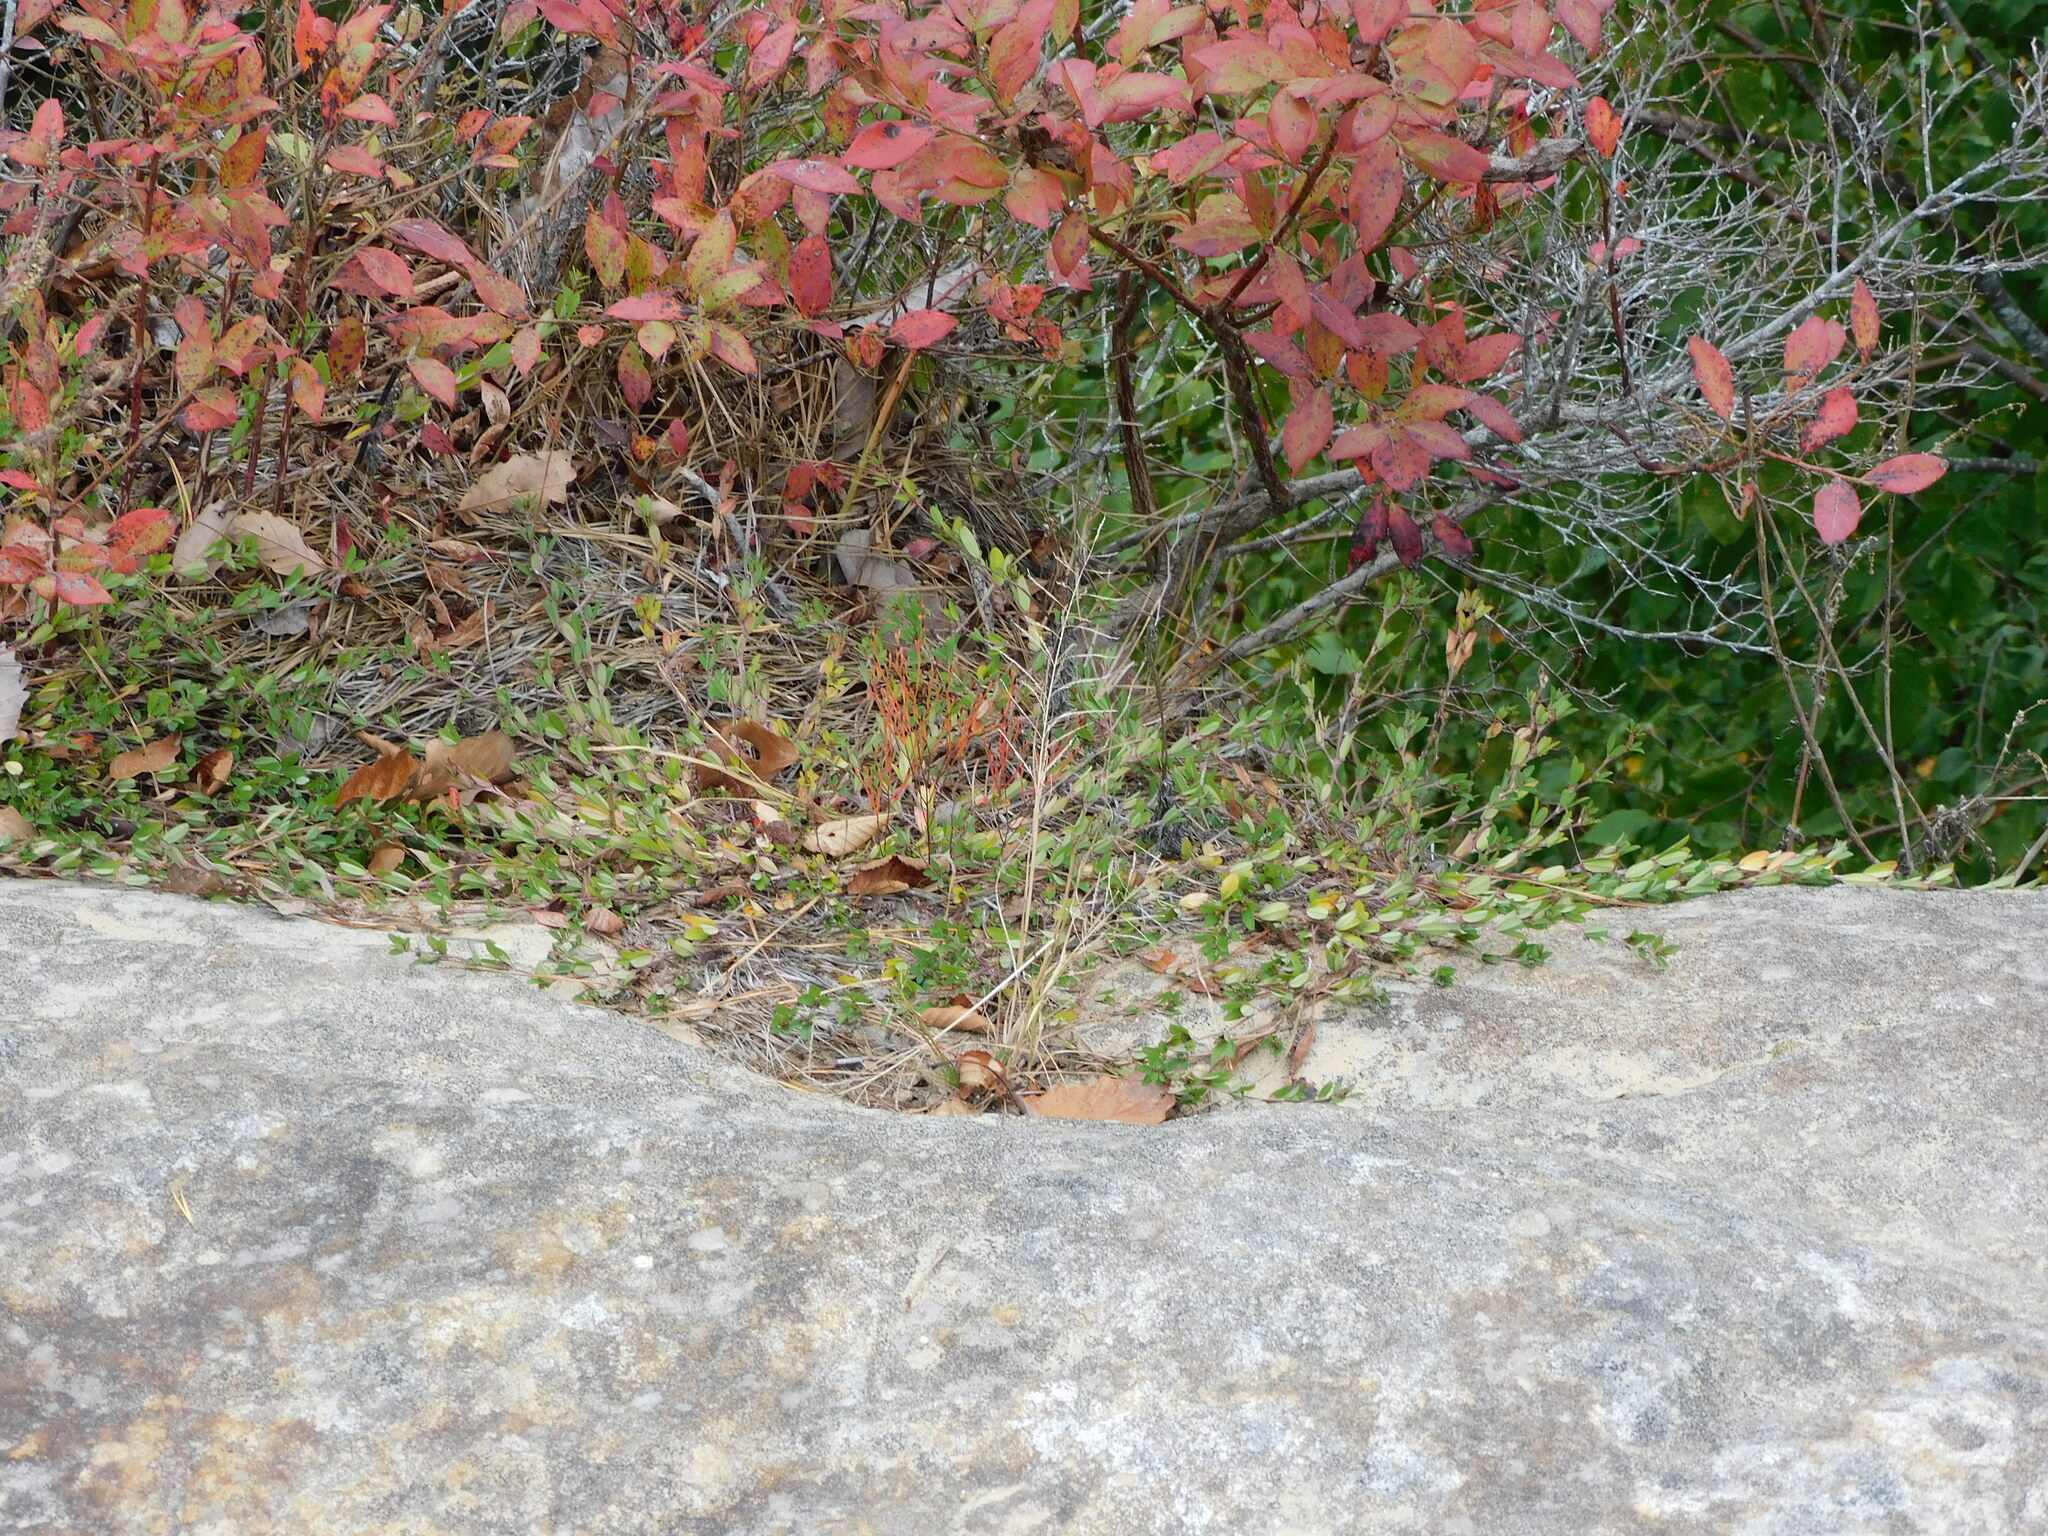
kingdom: Plantae
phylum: Tracheophyta
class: Magnoliopsida
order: Malpighiales
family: Hypericaceae
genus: Hypericum
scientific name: Hypericum gentianoides
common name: Gentian-leaved st. john's-wort
